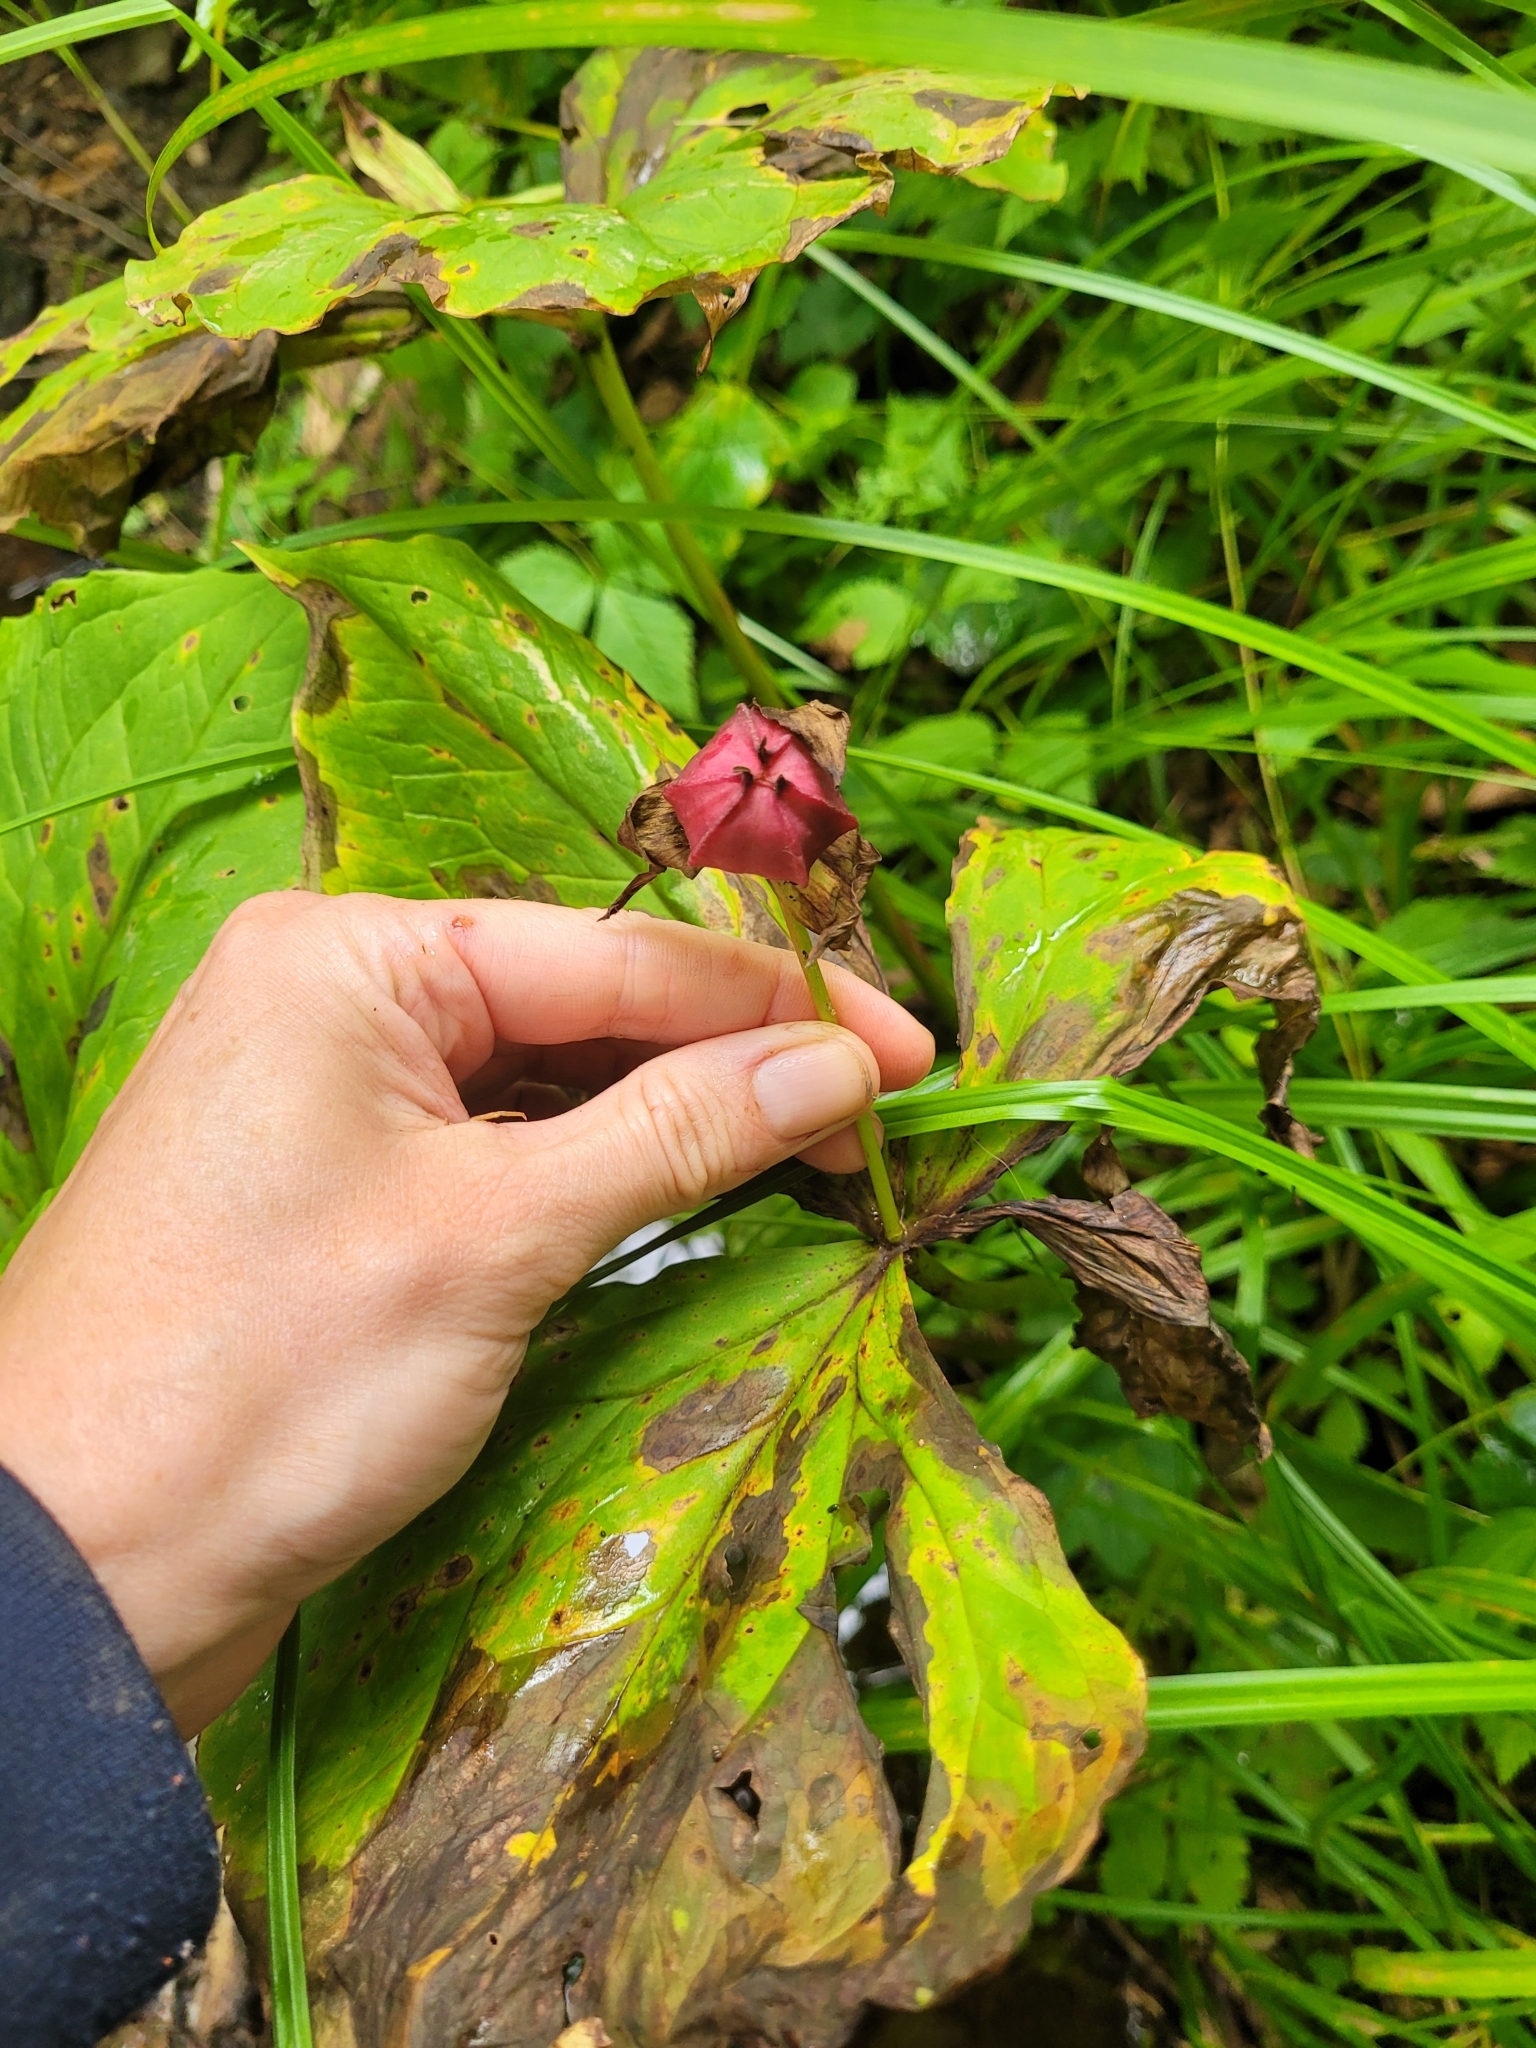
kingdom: Plantae
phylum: Tracheophyta
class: Liliopsida
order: Liliales
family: Melanthiaceae
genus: Trillium
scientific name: Trillium erectum
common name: Purple trillium
